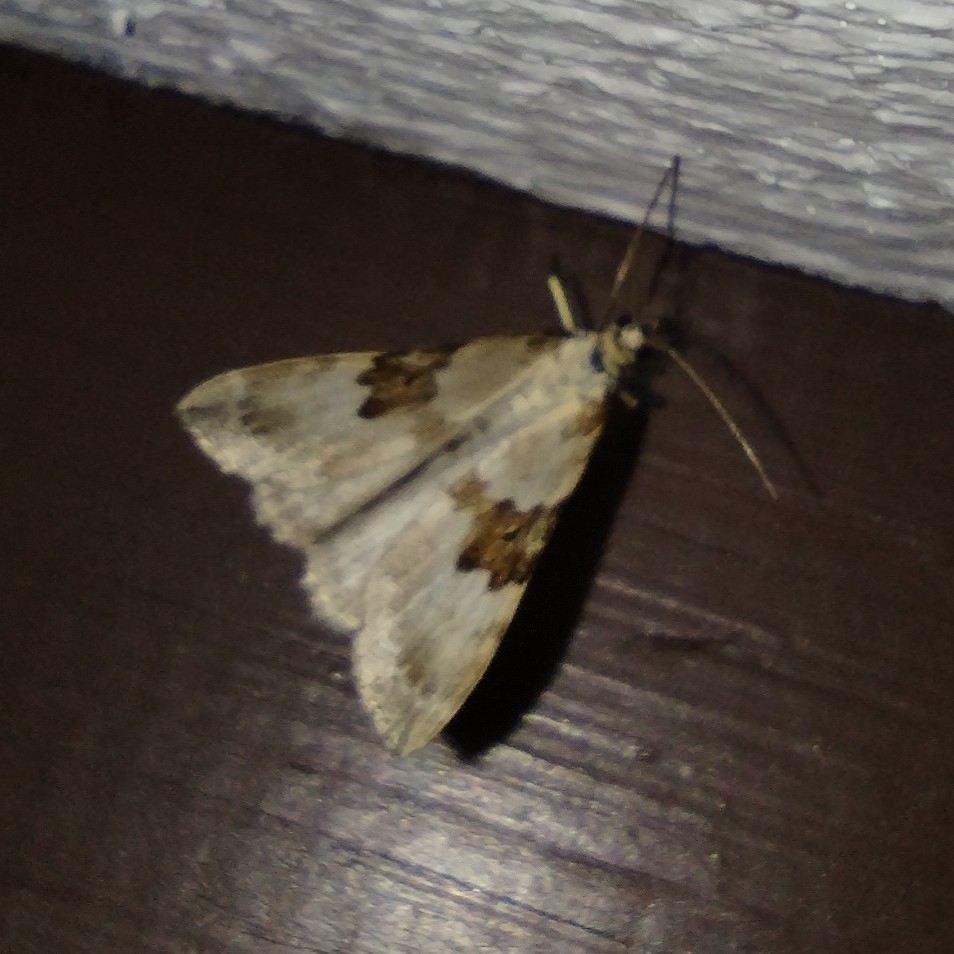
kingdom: Animalia
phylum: Arthropoda
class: Insecta
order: Lepidoptera
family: Geometridae
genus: Xanthorhoe
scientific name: Xanthorhoe montanata
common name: Silver-ground carpet
